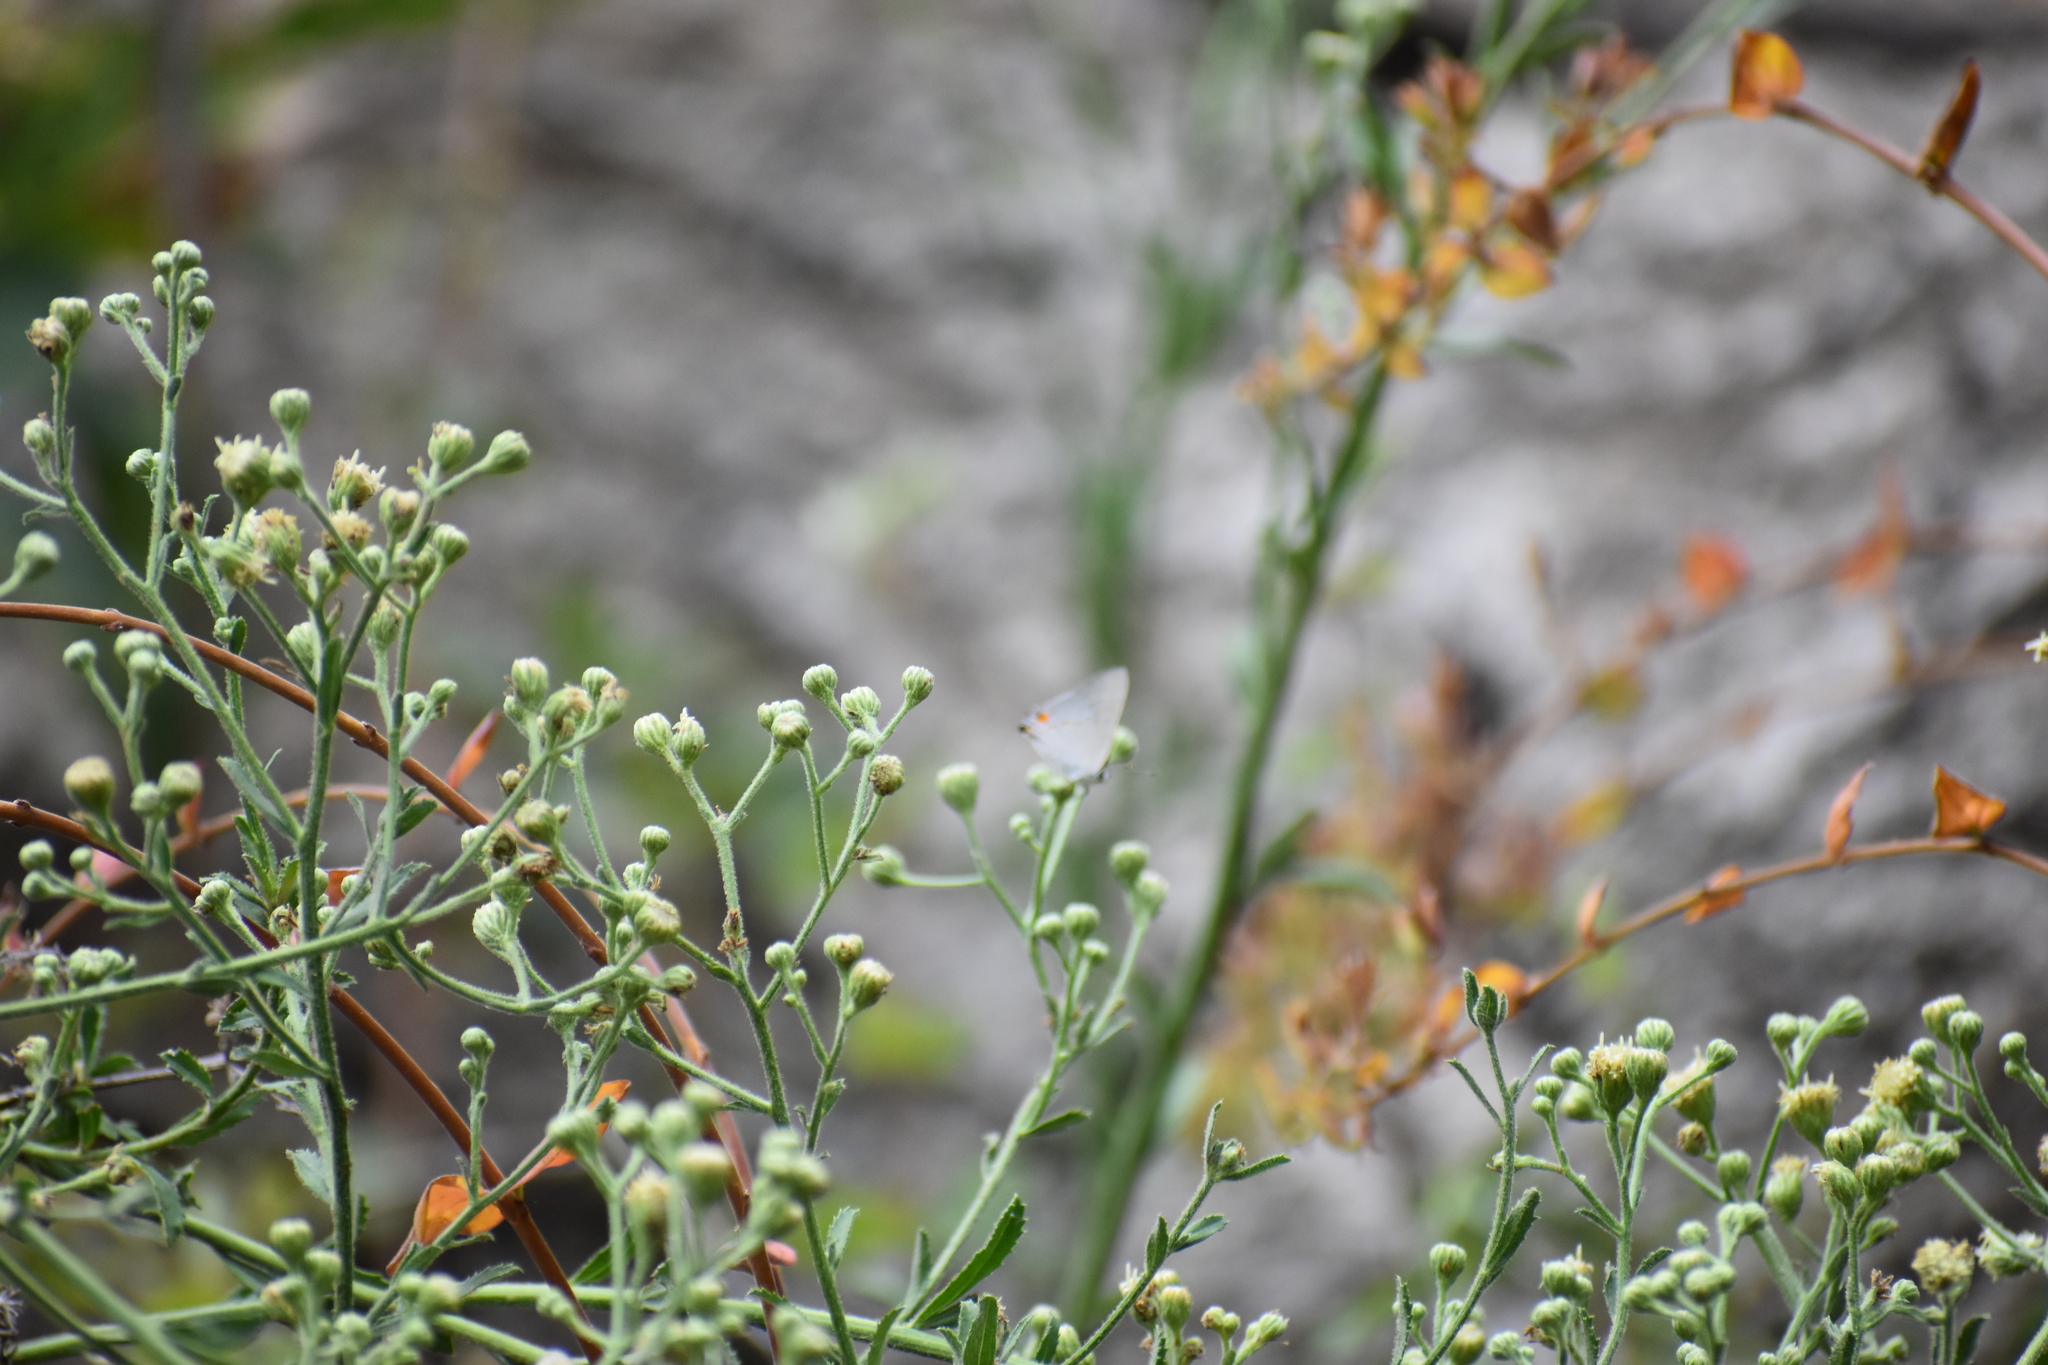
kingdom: Animalia
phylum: Arthropoda
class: Insecta
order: Lepidoptera
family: Lycaenidae
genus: Strymon
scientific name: Strymon melinus
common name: Gray hairstreak
